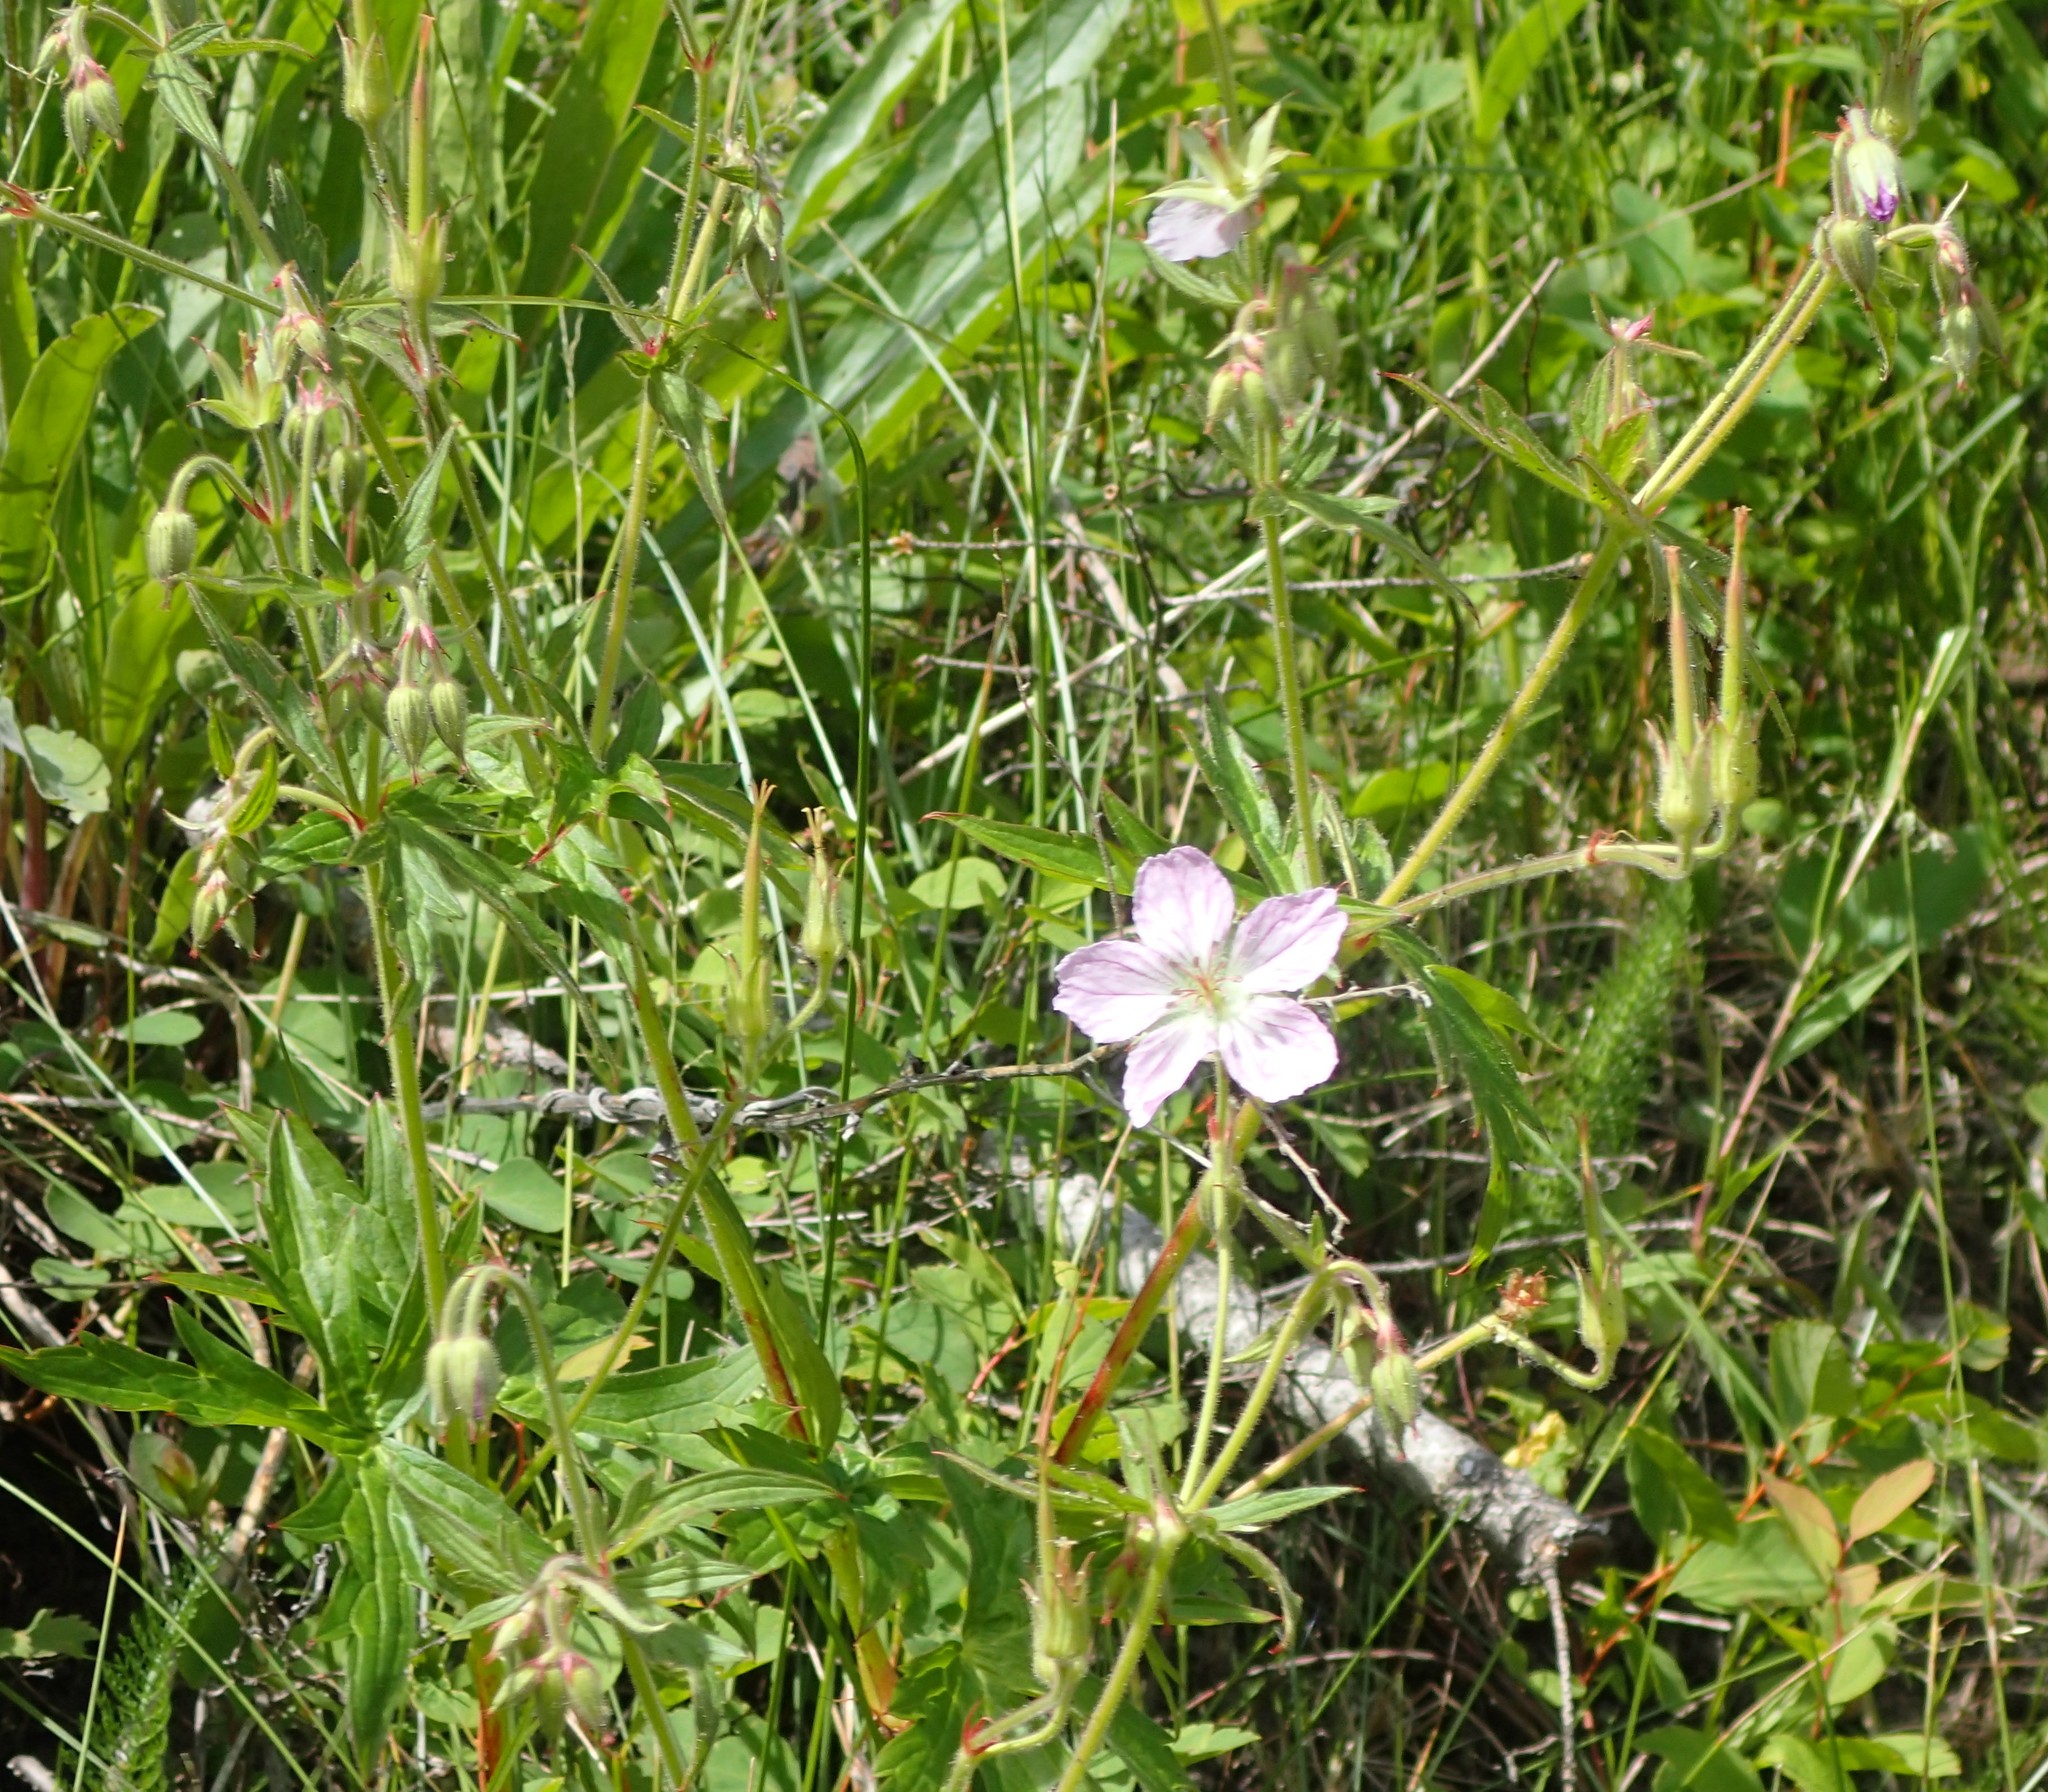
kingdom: Plantae
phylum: Tracheophyta
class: Magnoliopsida
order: Geraniales
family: Geraniaceae
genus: Geranium
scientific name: Geranium richardsonii
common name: Richardson's crane's-bill
